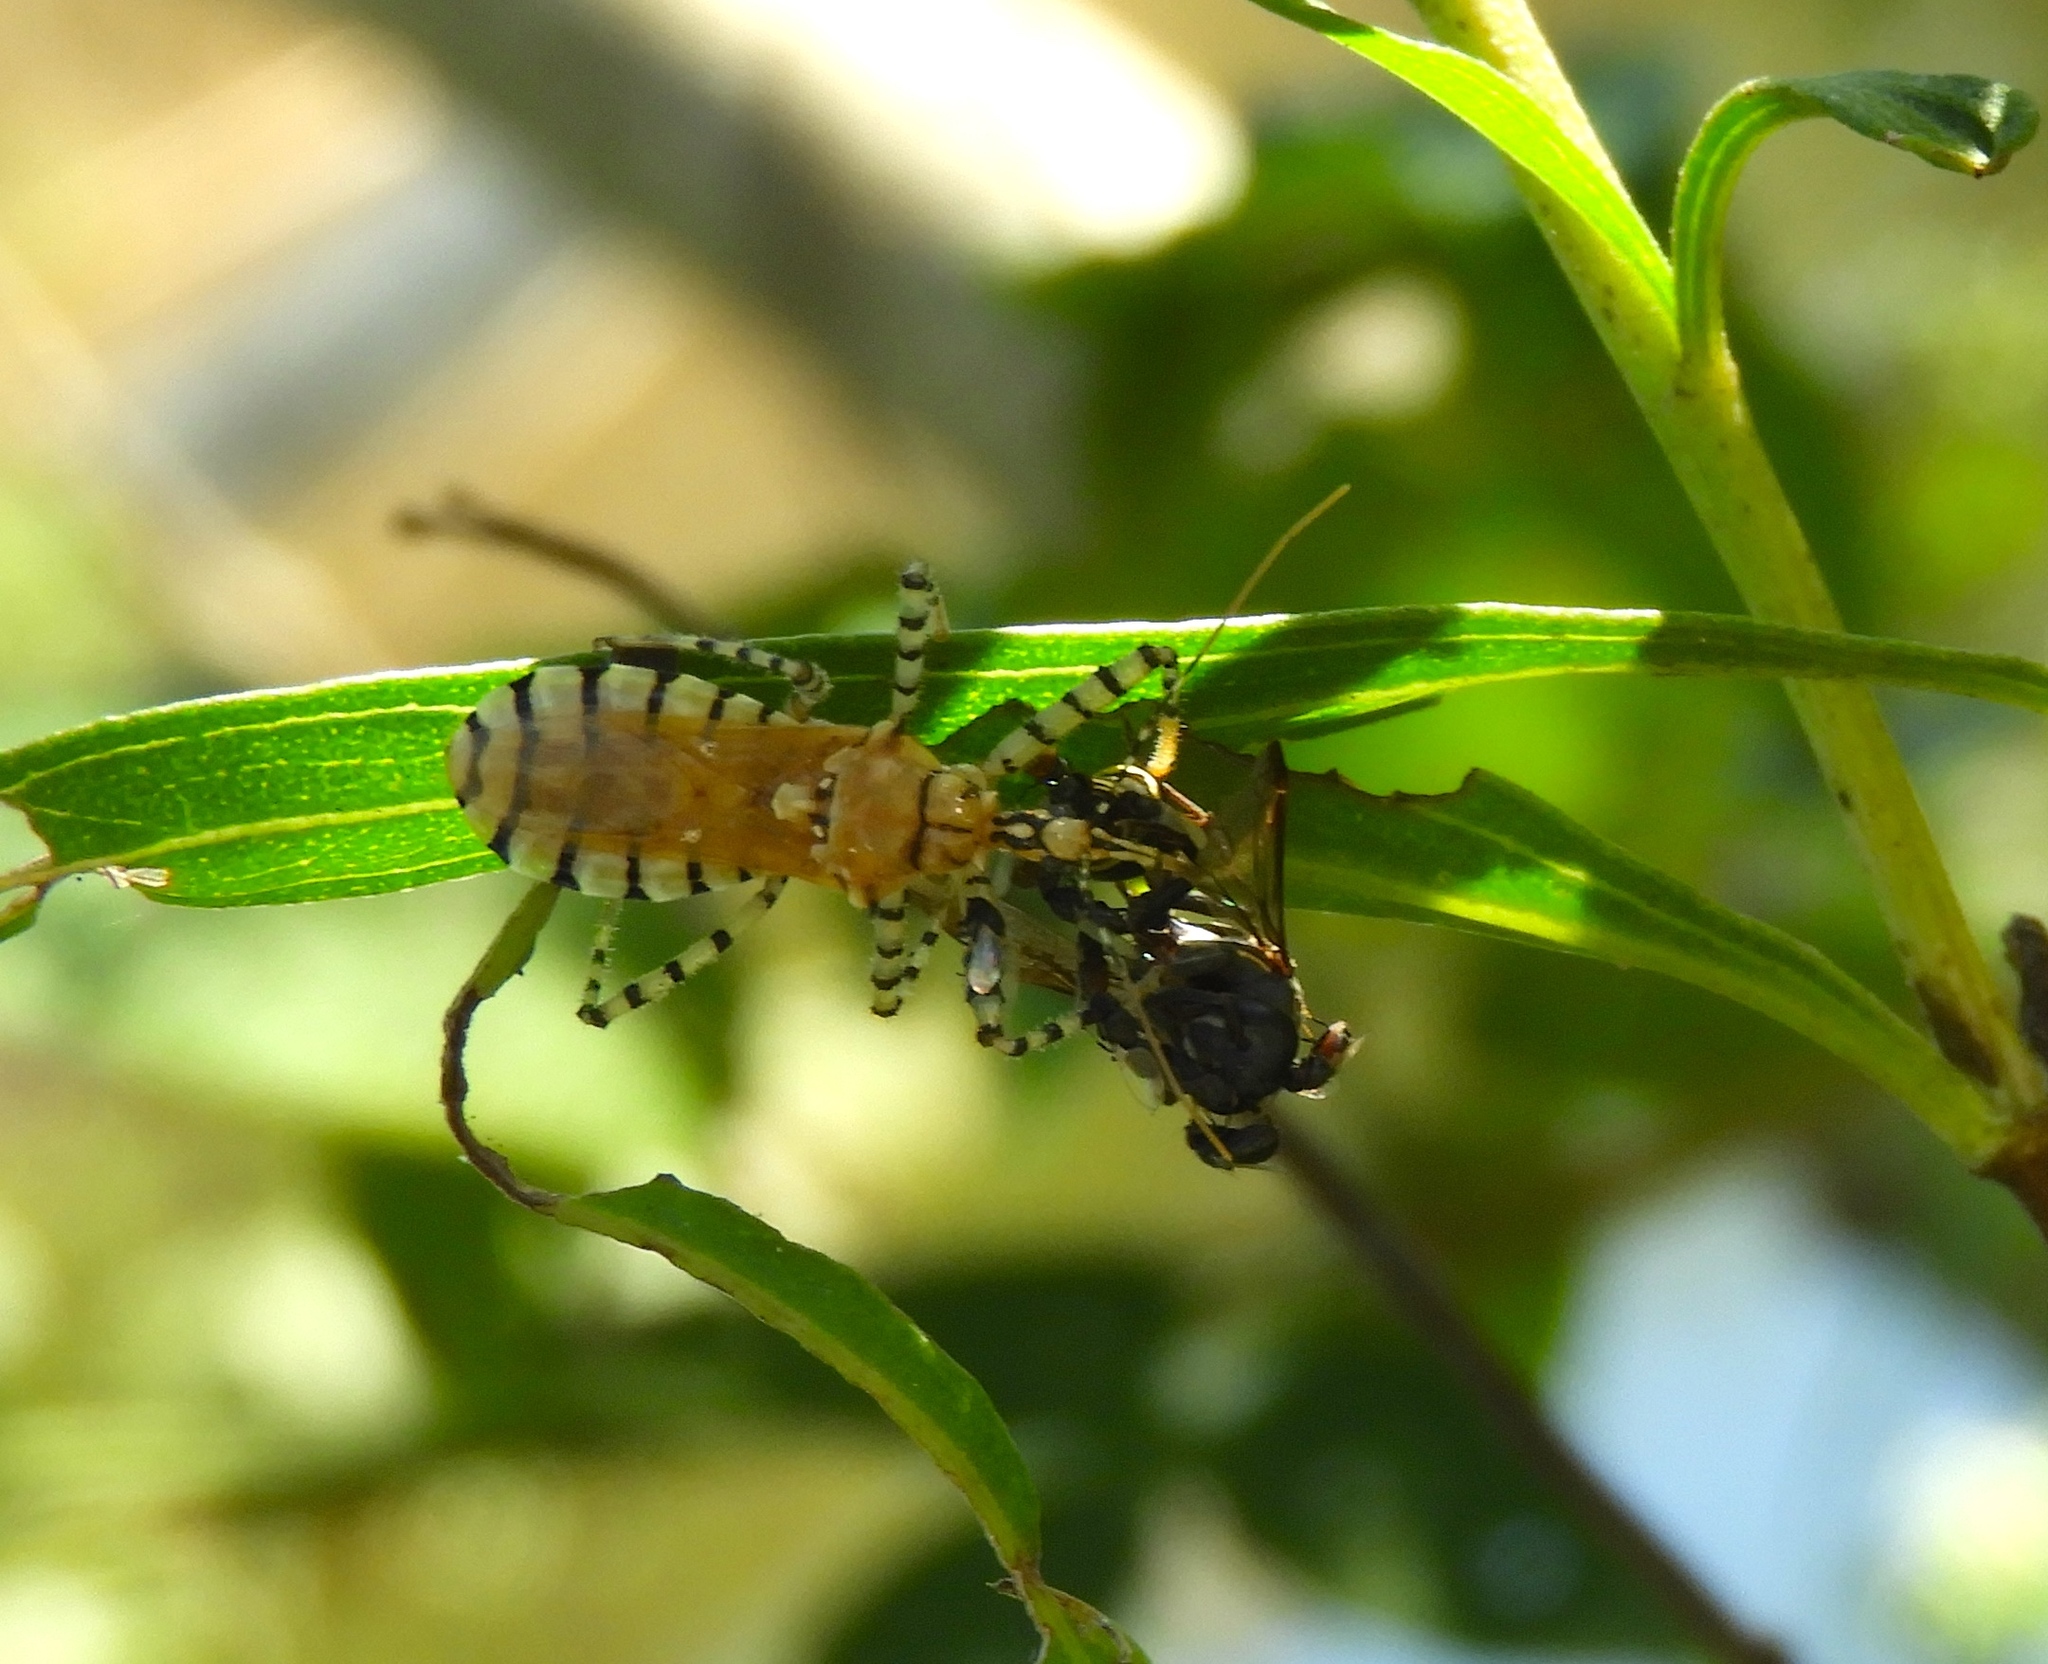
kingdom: Animalia
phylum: Arthropoda
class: Insecta
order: Hemiptera
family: Reduviidae
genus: Pselliopus
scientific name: Pselliopus
